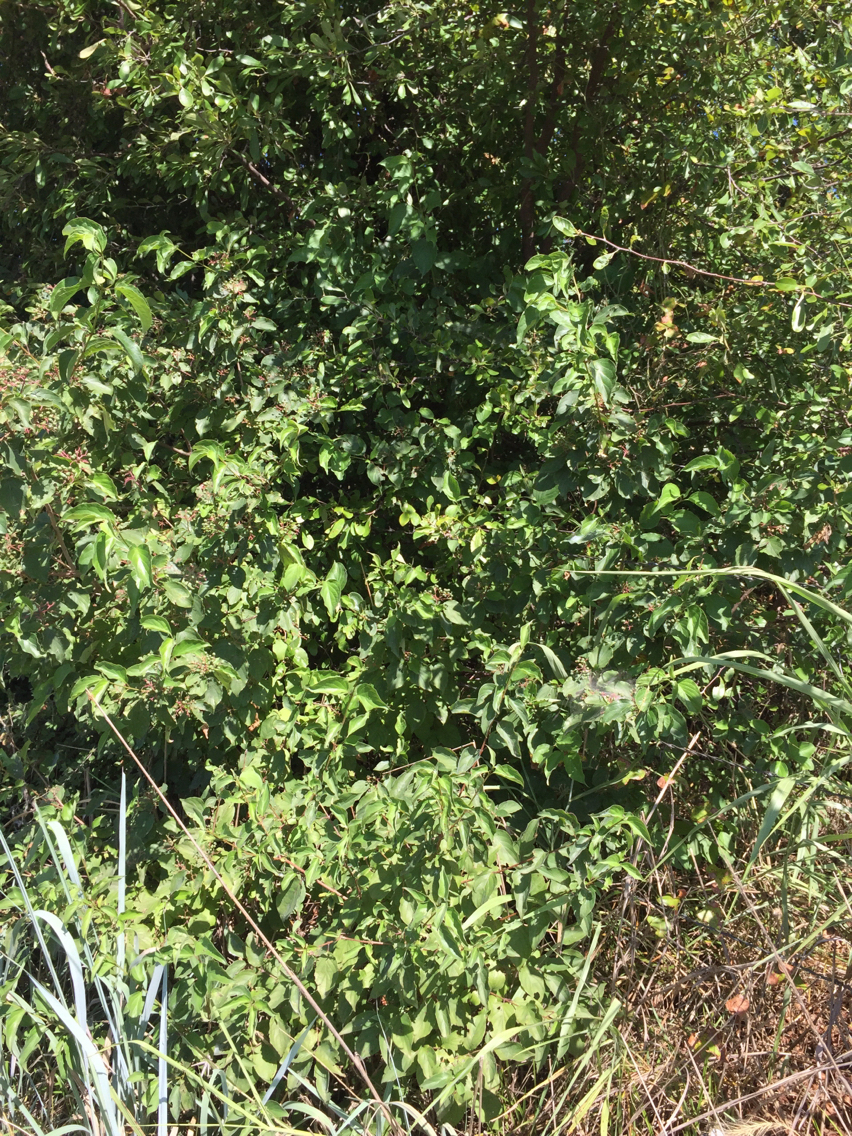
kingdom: Plantae
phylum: Tracheophyta
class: Magnoliopsida
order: Cornales
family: Cornaceae
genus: Cornus
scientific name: Cornus drummondii
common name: Rough-leaf dogwood
